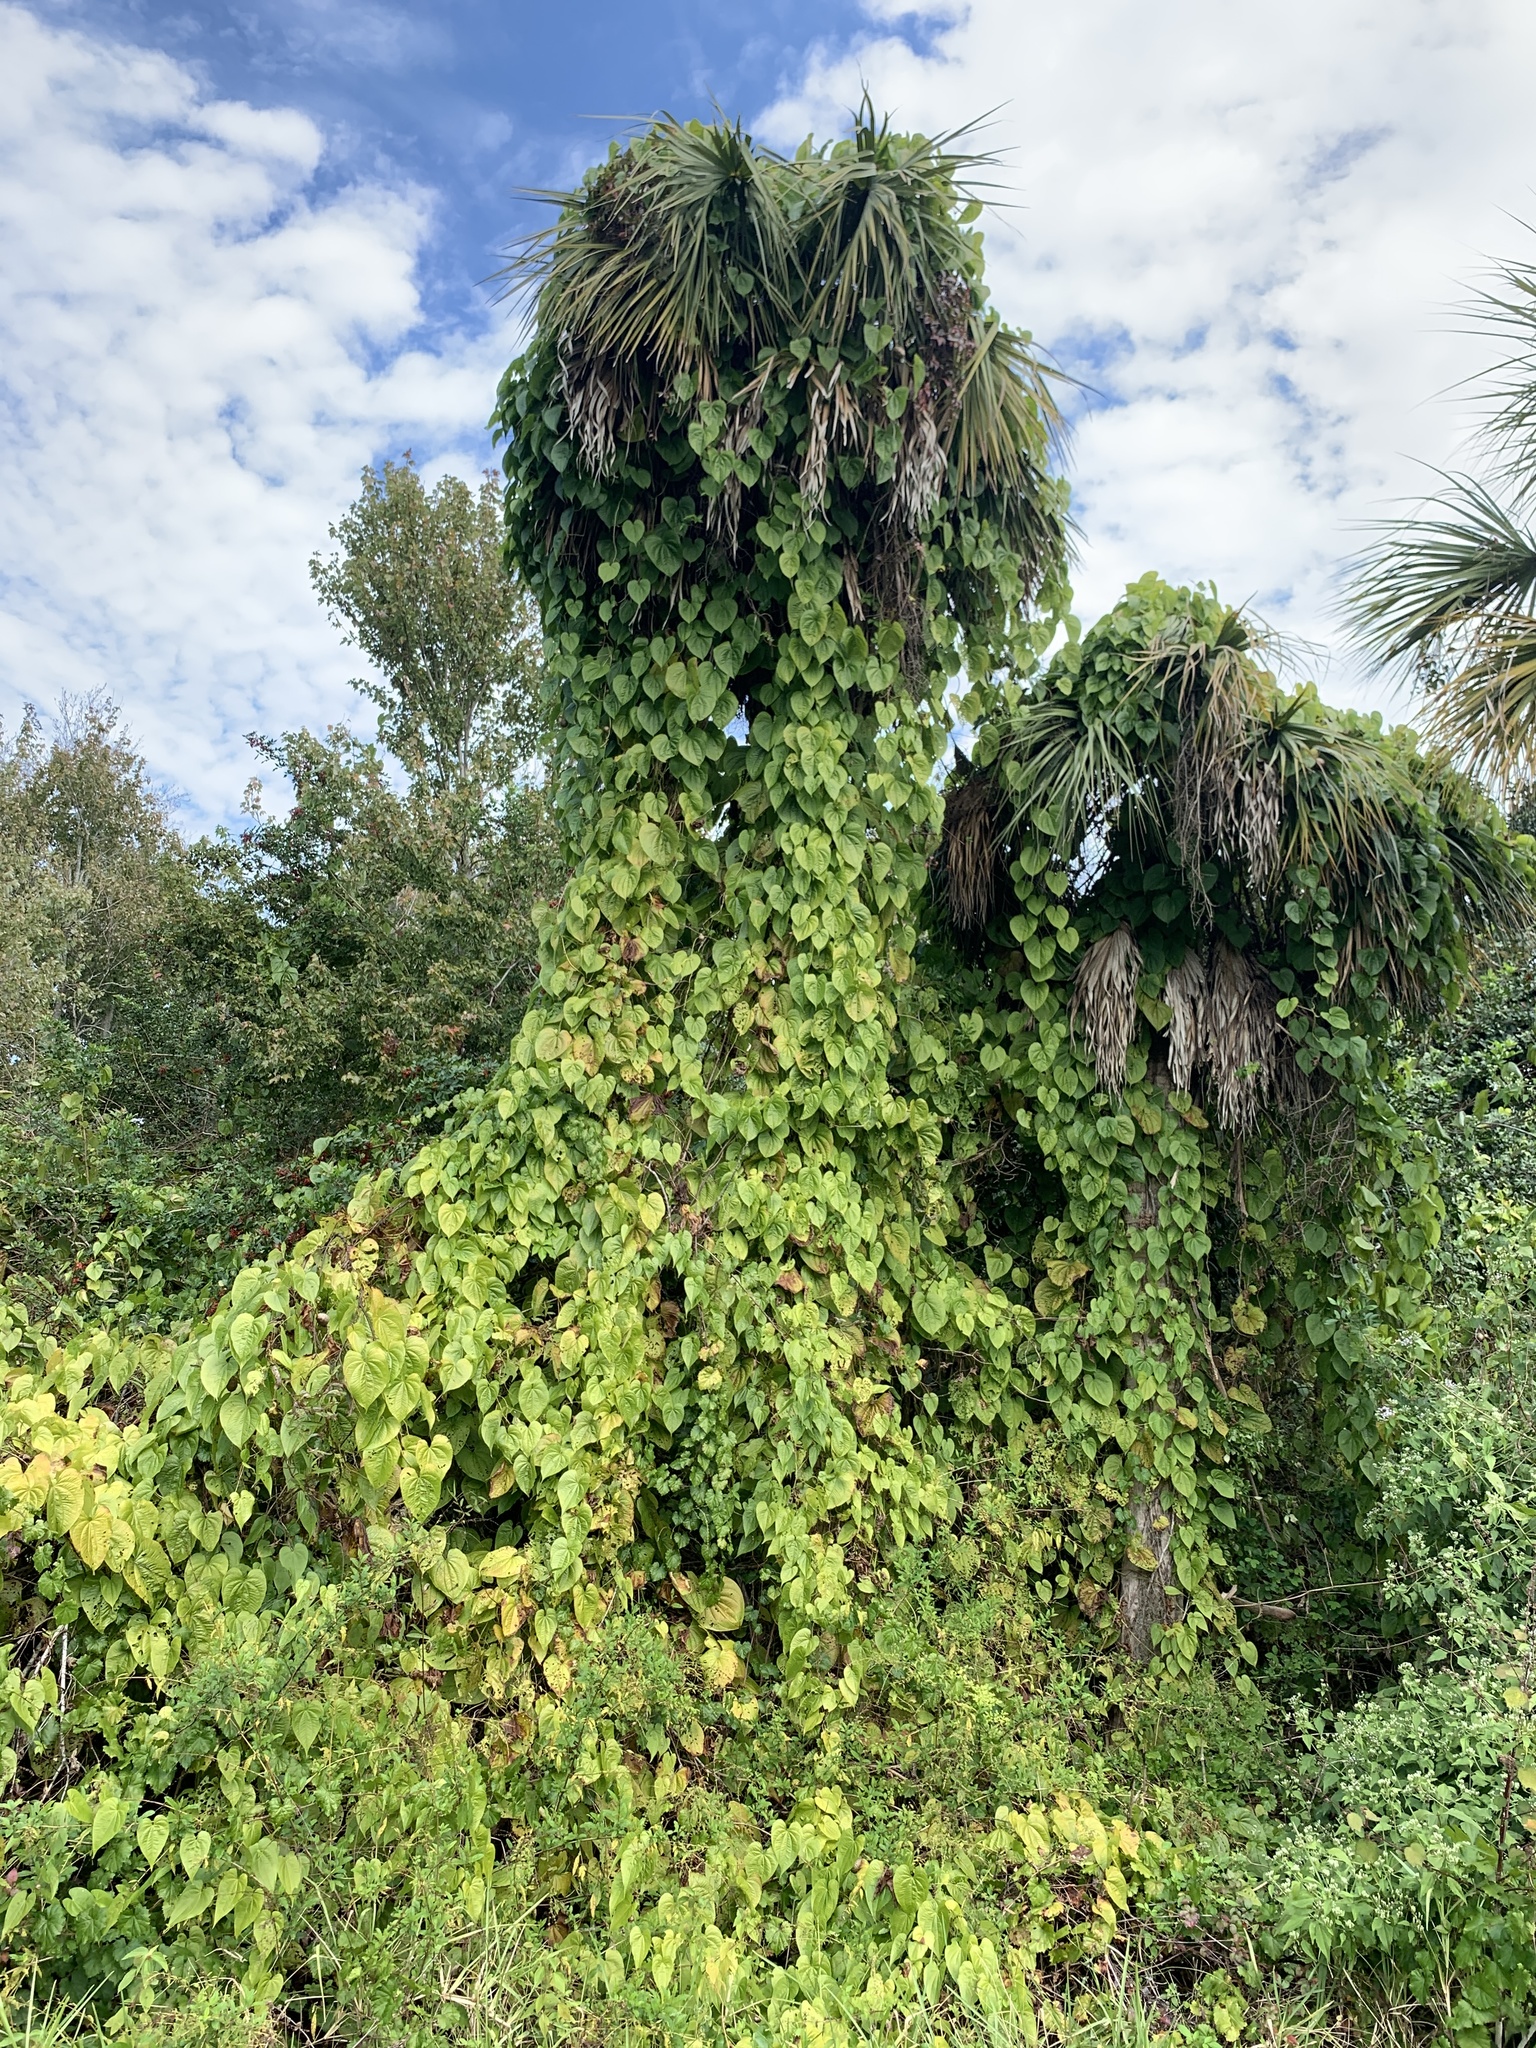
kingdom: Plantae
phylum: Tracheophyta
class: Liliopsida
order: Dioscoreales
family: Dioscoreaceae
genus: Dioscorea
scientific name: Dioscorea bulbifera
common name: Air yam
